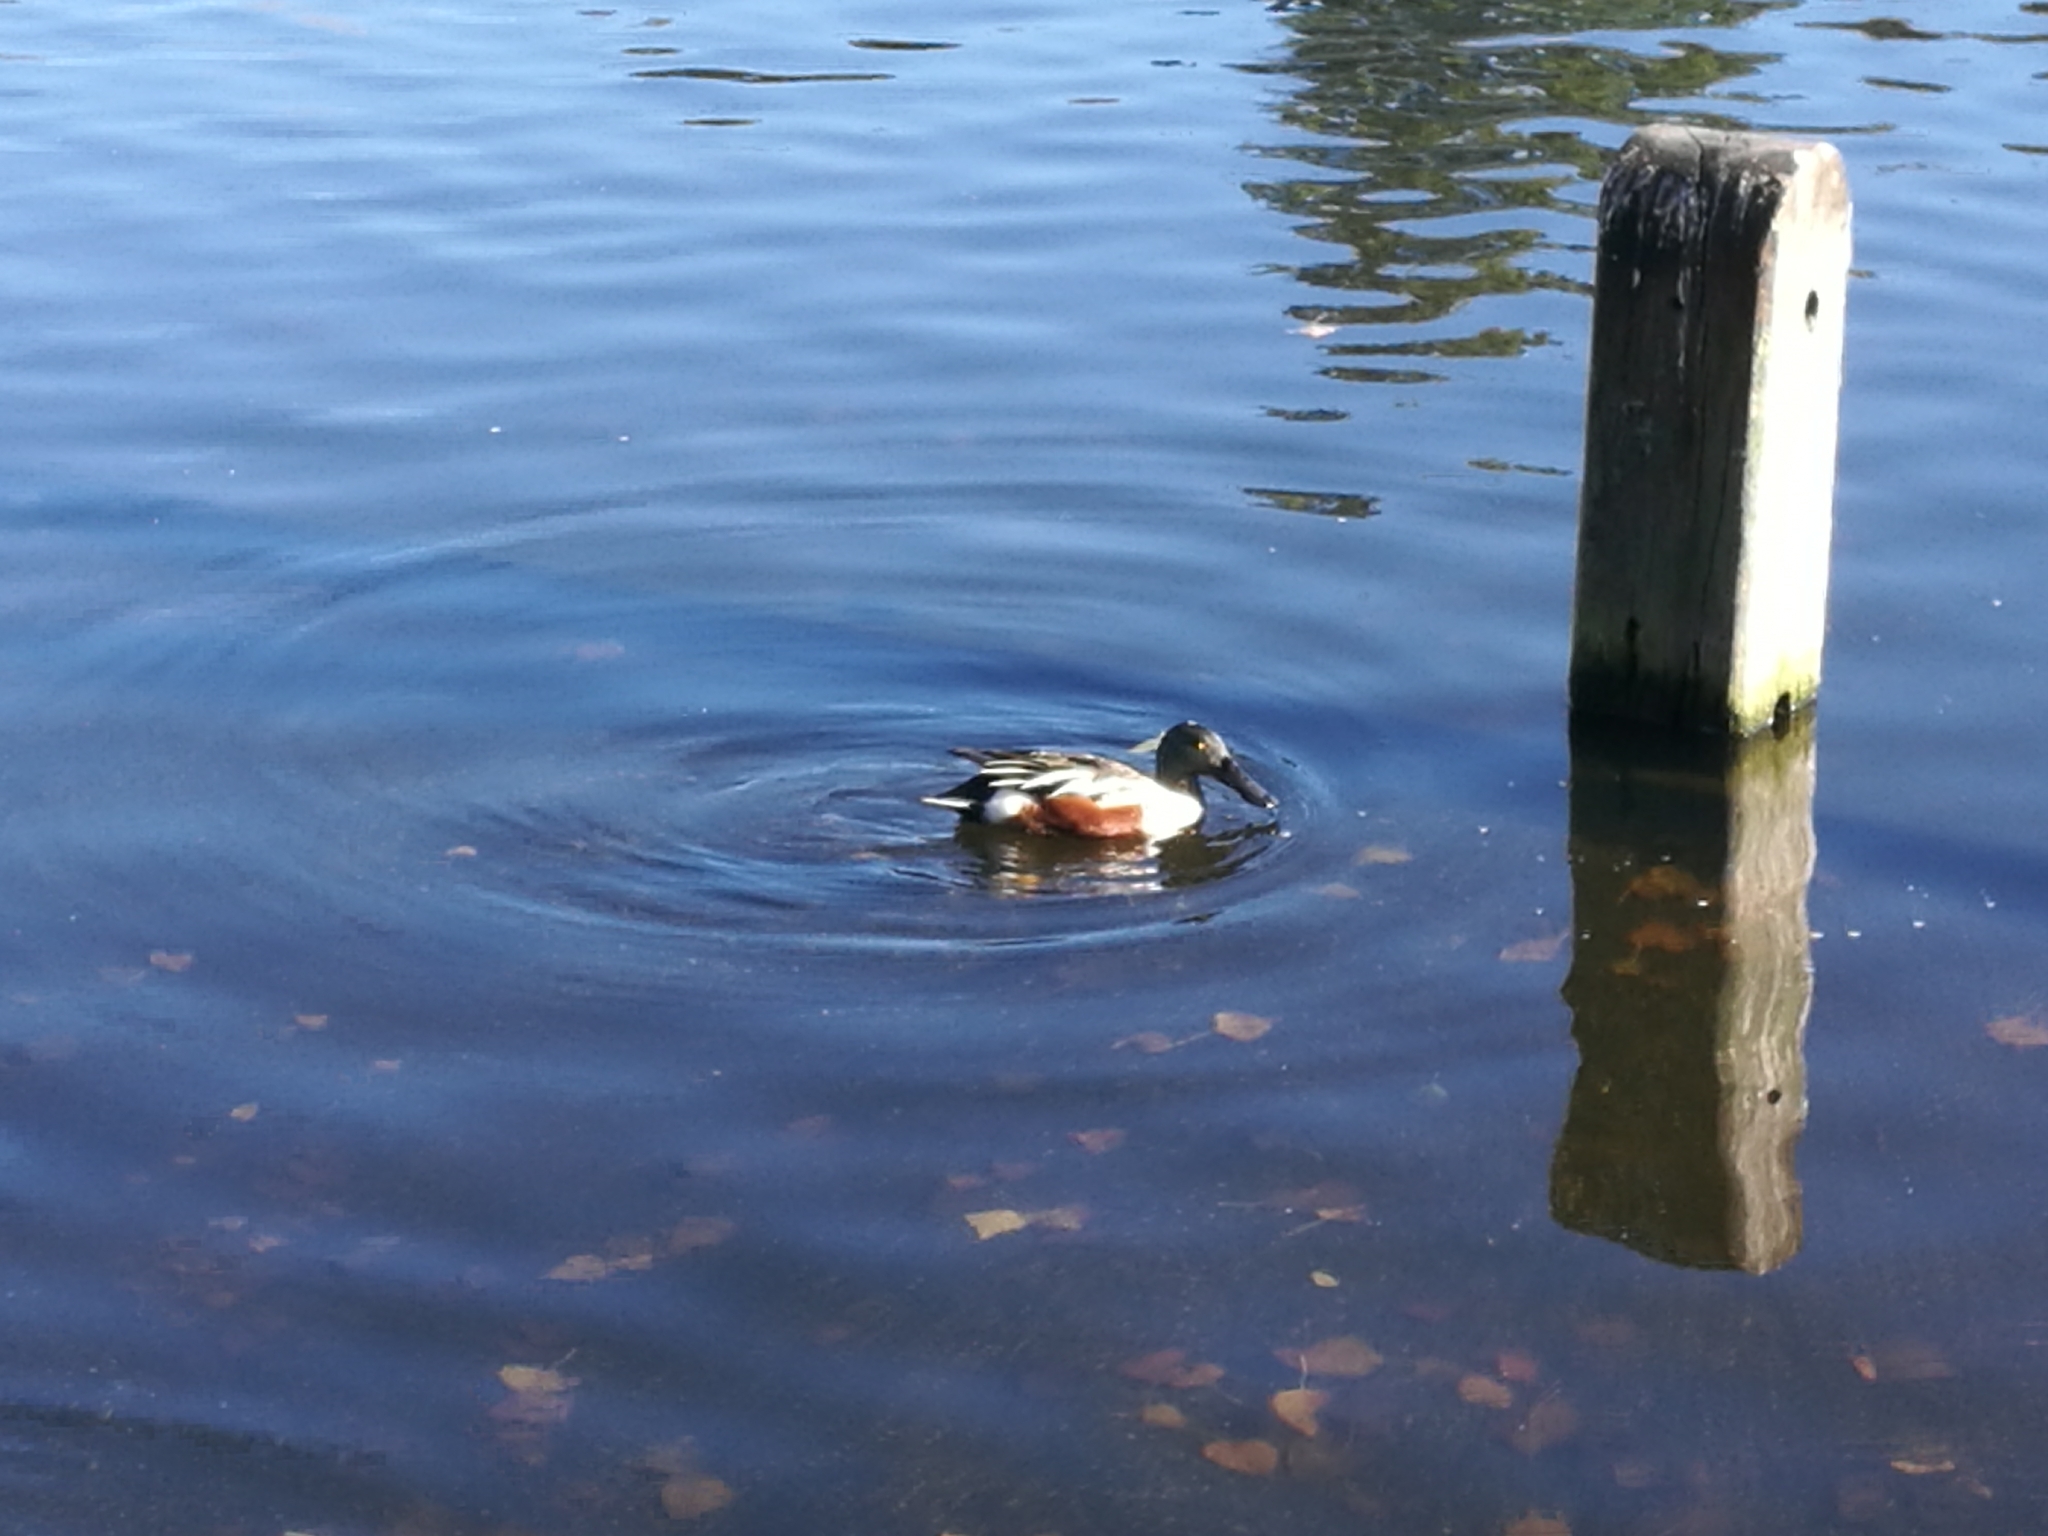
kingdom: Animalia
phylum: Chordata
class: Aves
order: Anseriformes
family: Anatidae
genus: Spatula
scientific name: Spatula clypeata
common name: Northern shoveler
